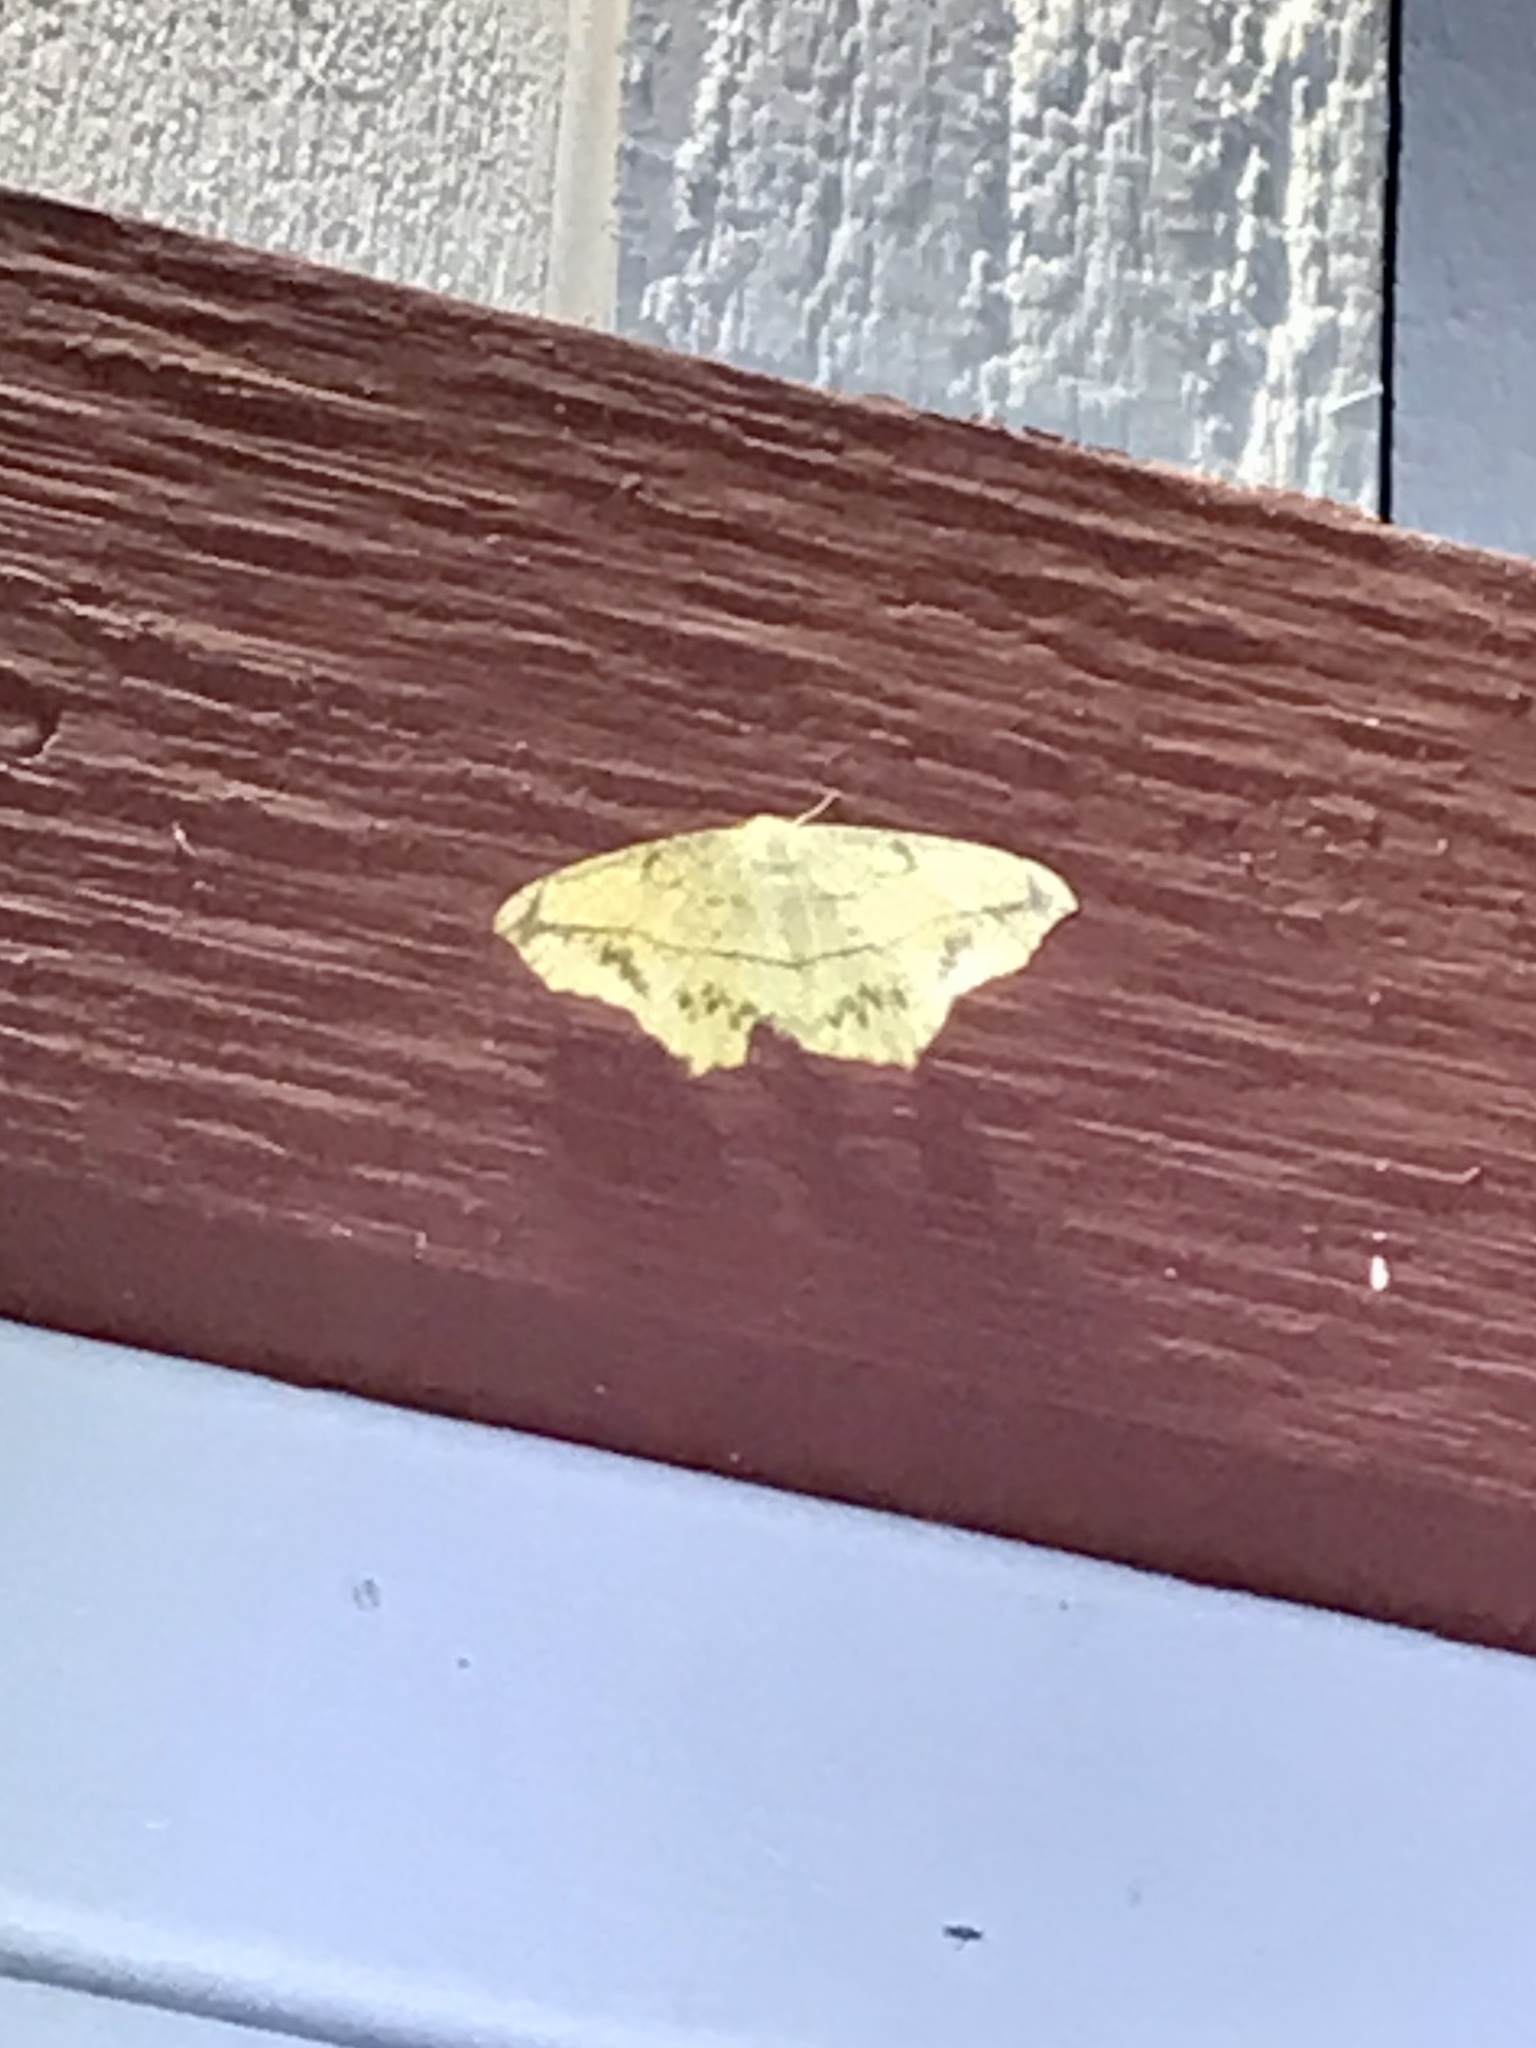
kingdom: Animalia
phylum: Arthropoda
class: Insecta
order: Lepidoptera
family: Geometridae
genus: Prochoerodes
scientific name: Prochoerodes lineola
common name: Large maple spanworm
